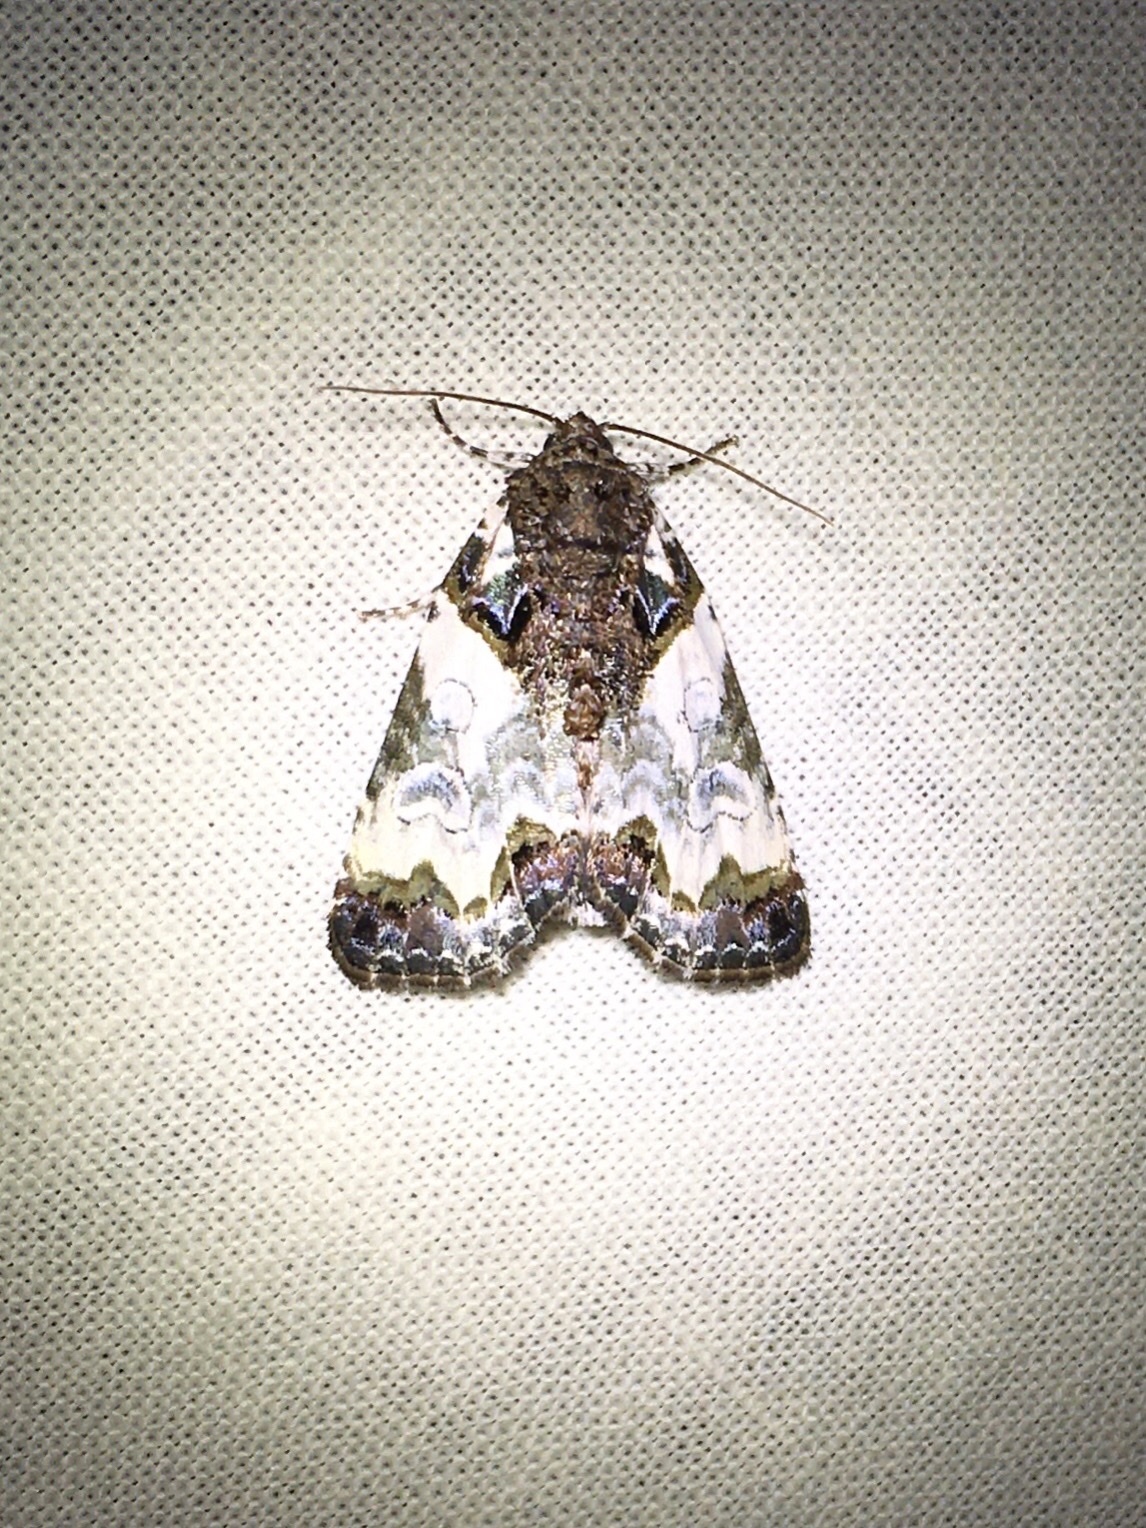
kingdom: Animalia
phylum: Arthropoda
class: Insecta
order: Lepidoptera
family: Noctuidae
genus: Cerma
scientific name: Cerma cerintha
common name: Tufted bird-dropping moth
